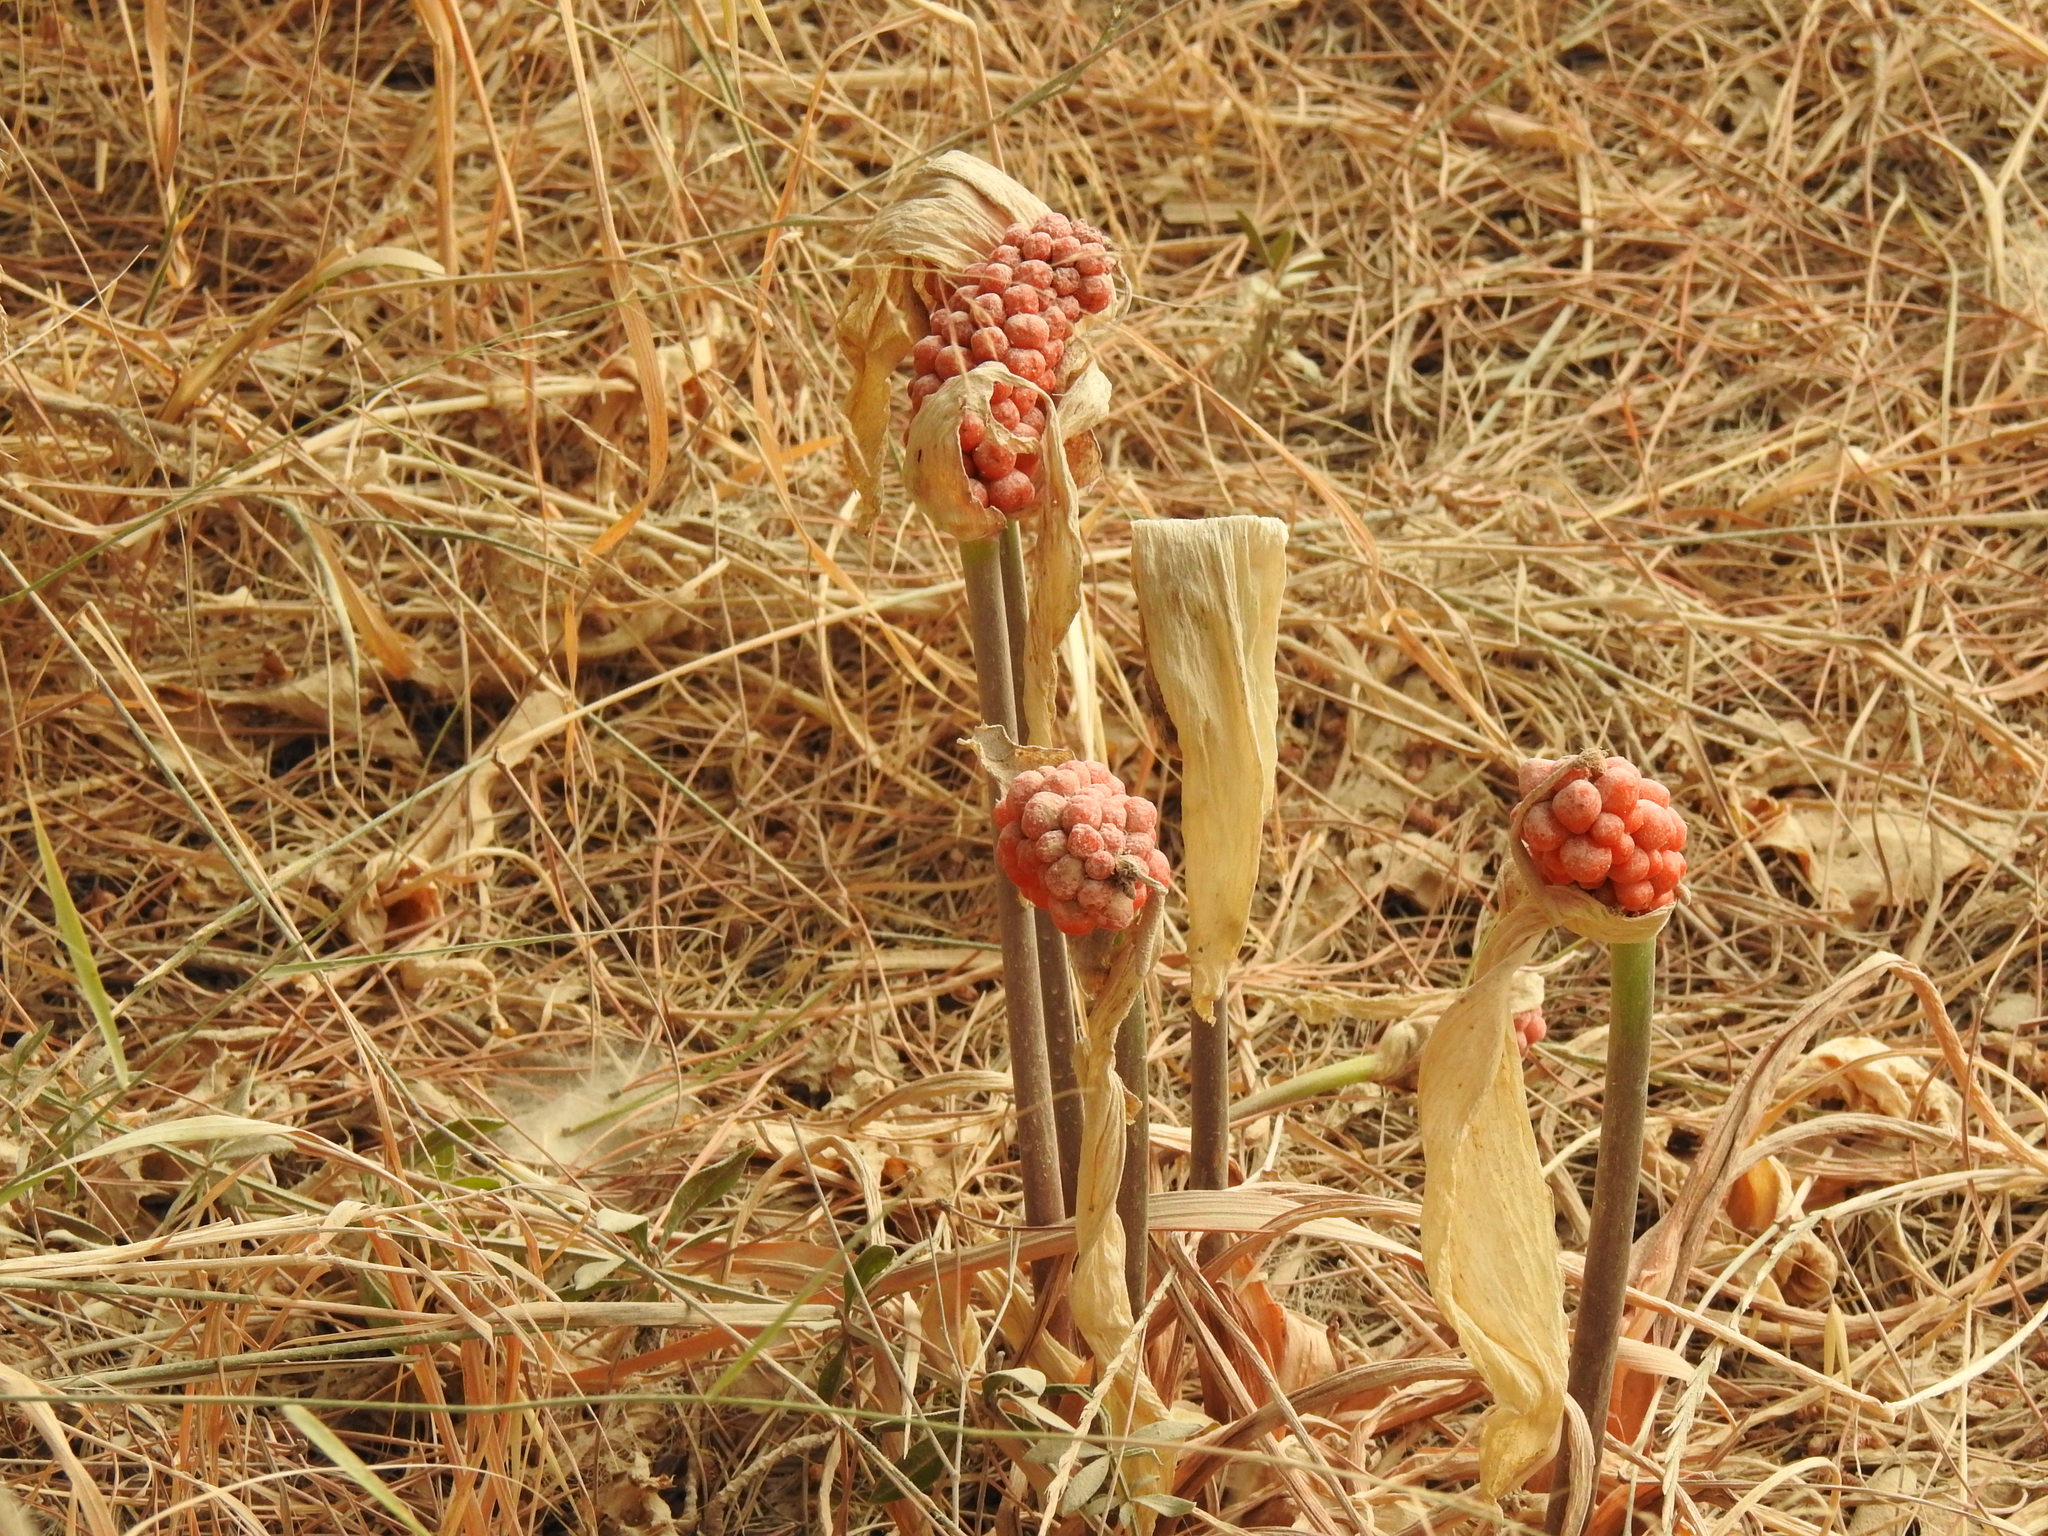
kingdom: Plantae
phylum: Tracheophyta
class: Liliopsida
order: Alismatales
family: Araceae
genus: Arum
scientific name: Arum italicum
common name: Italian lords-and-ladies
